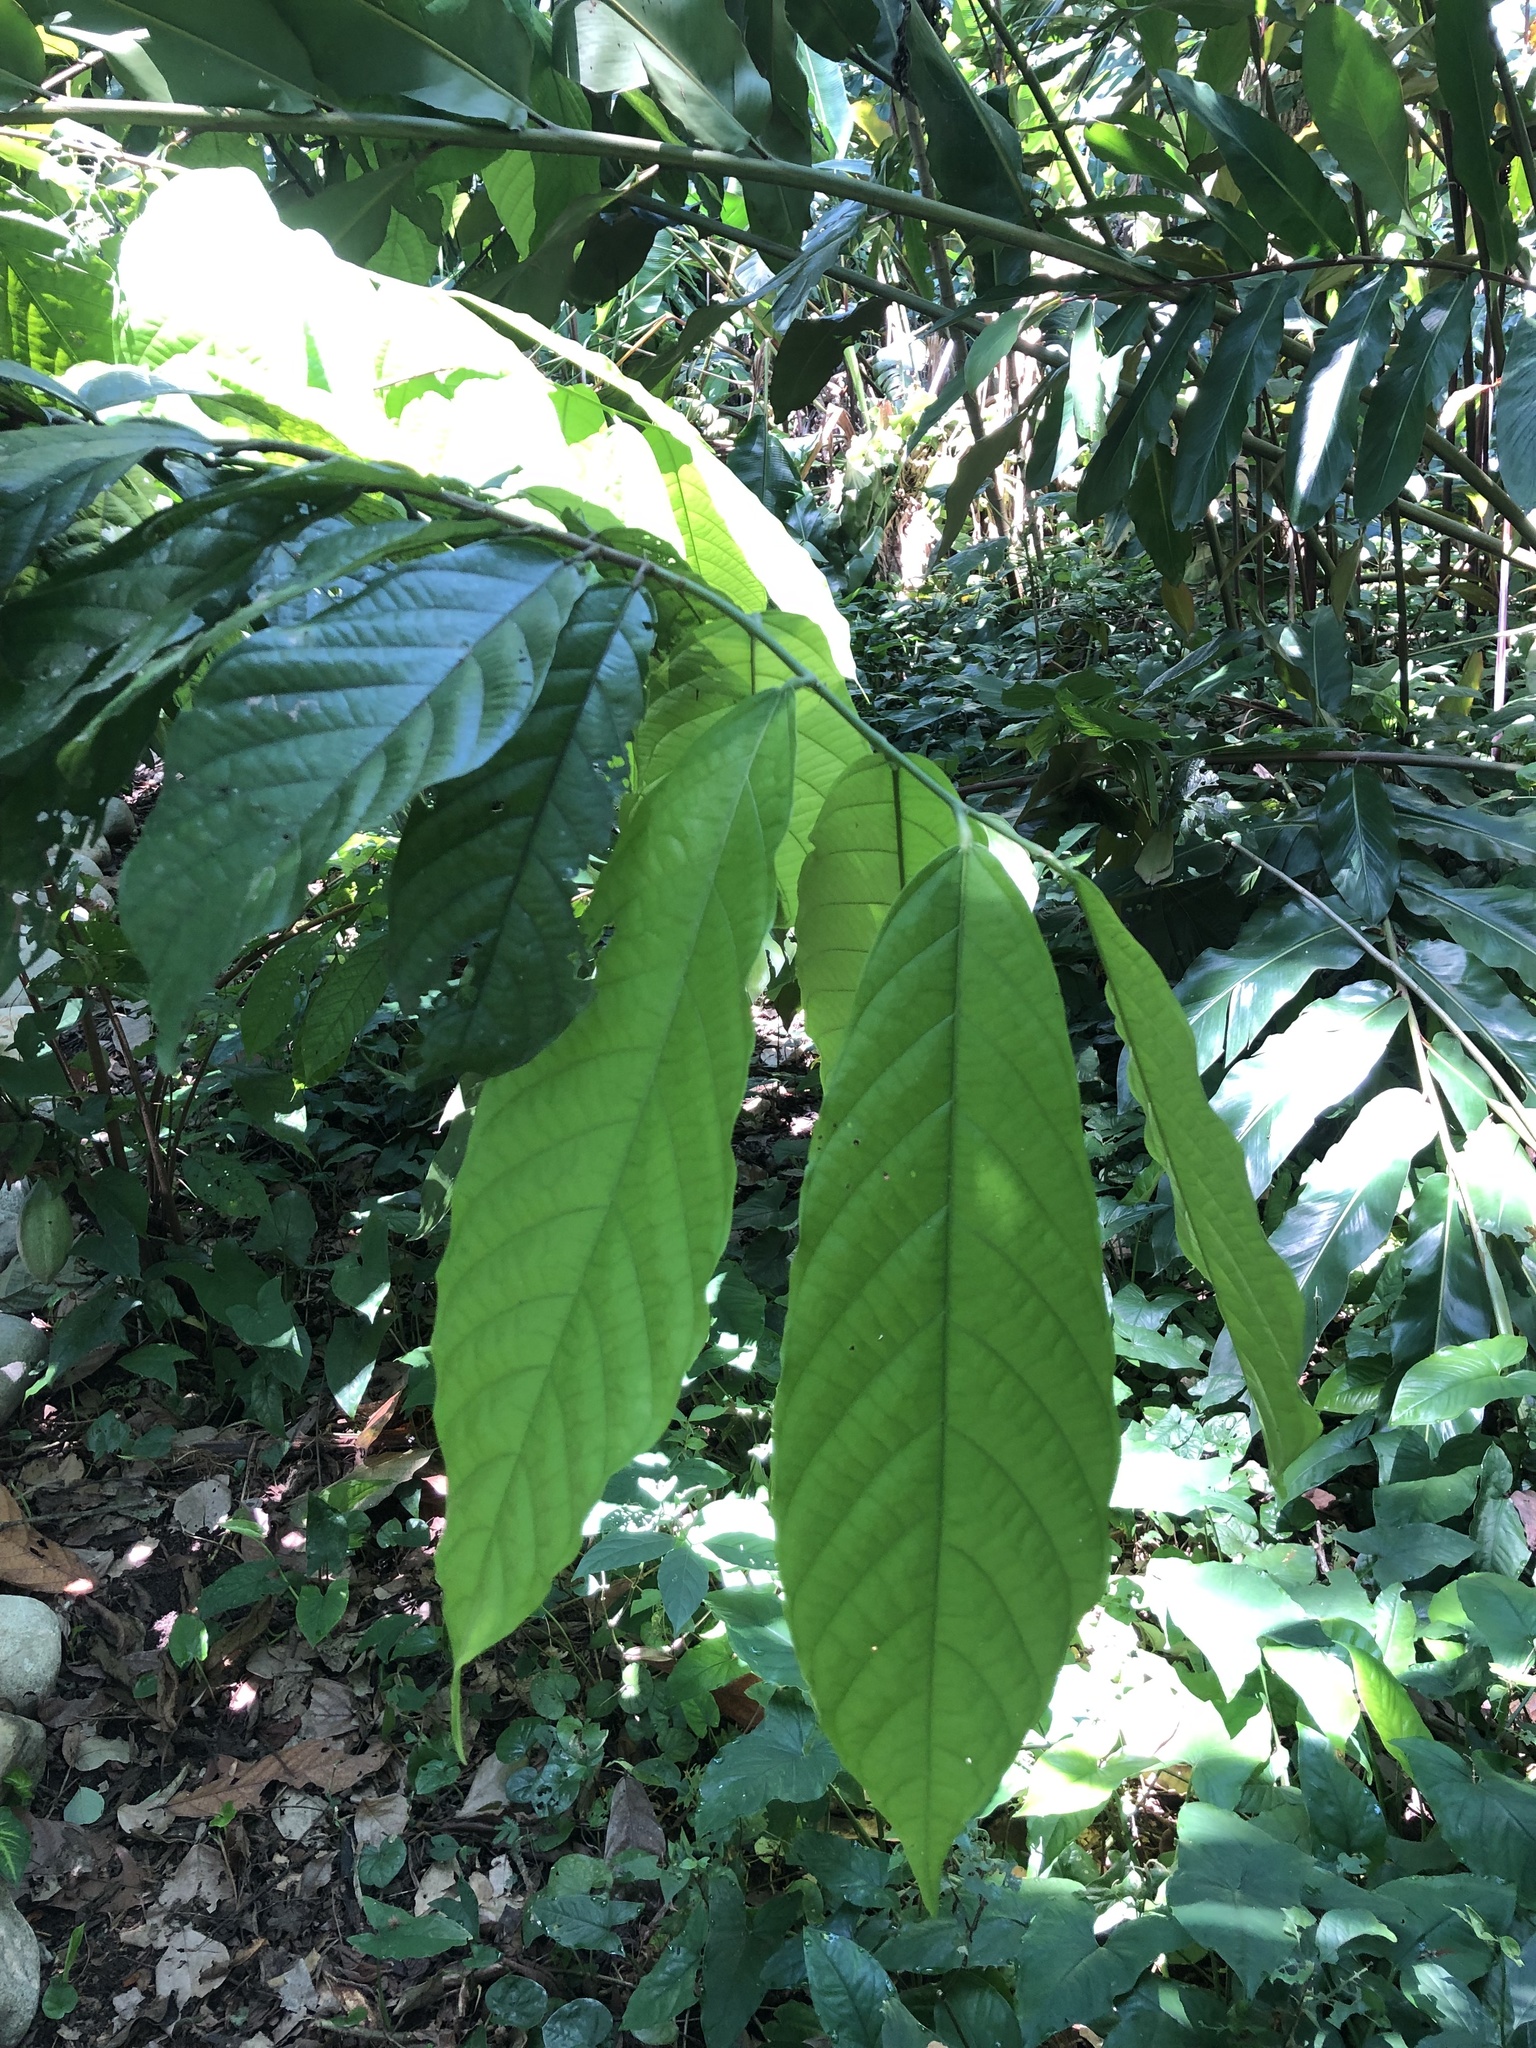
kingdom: Plantae
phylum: Tracheophyta
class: Magnoliopsida
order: Malvales
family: Malvaceae
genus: Theobroma
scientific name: Theobroma cacao
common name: Cocoa
